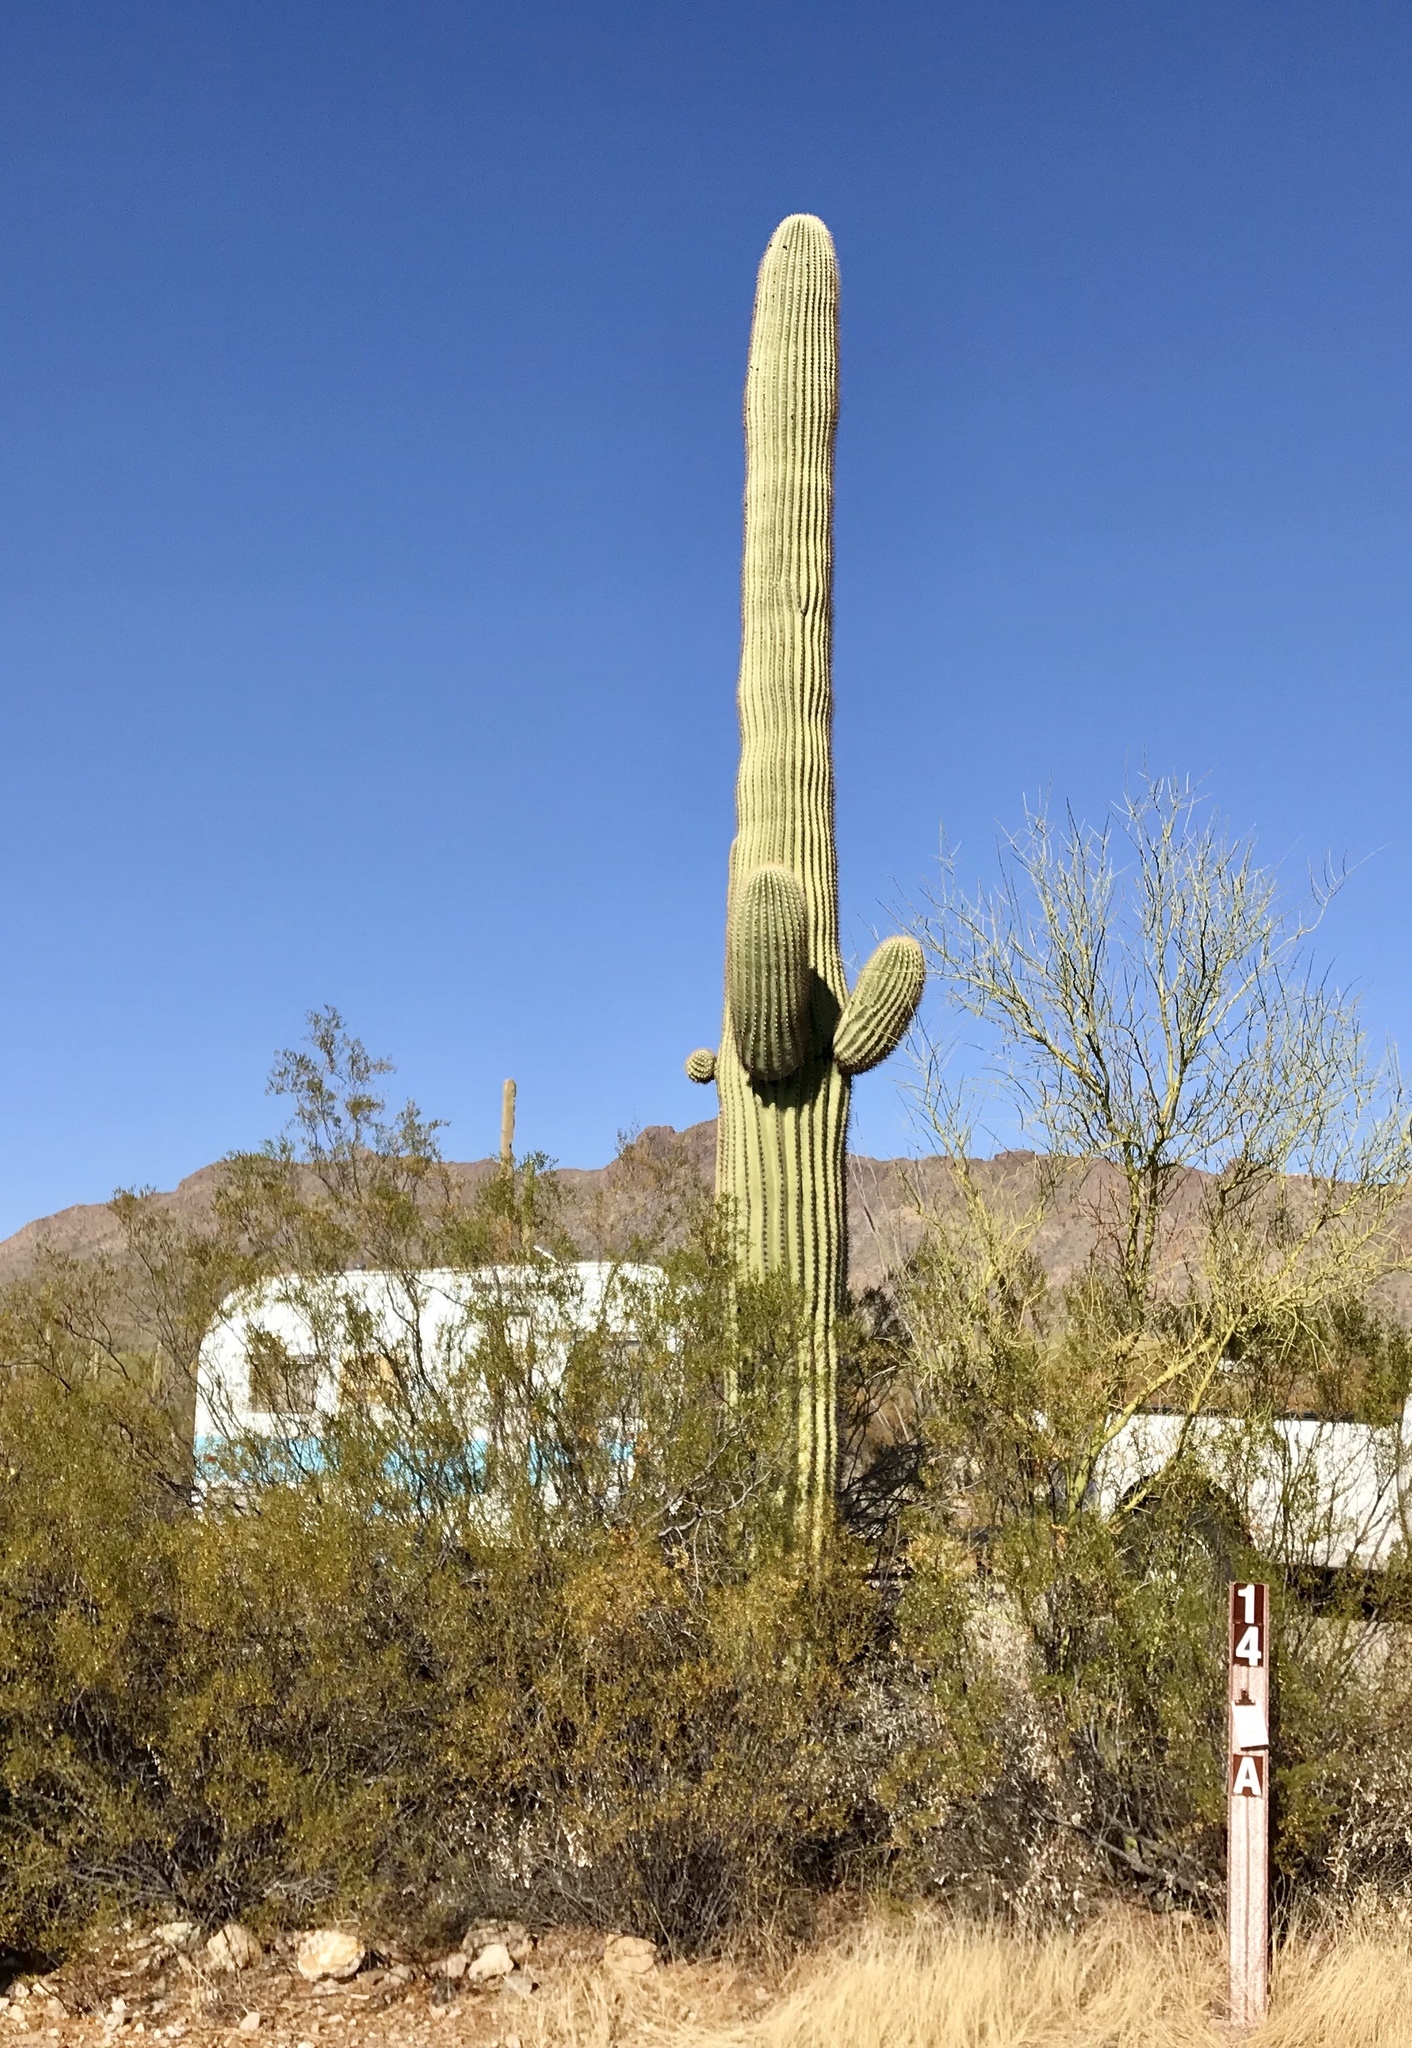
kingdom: Plantae
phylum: Tracheophyta
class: Magnoliopsida
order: Caryophyllales
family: Cactaceae
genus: Carnegiea
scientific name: Carnegiea gigantea
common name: Saguaro
